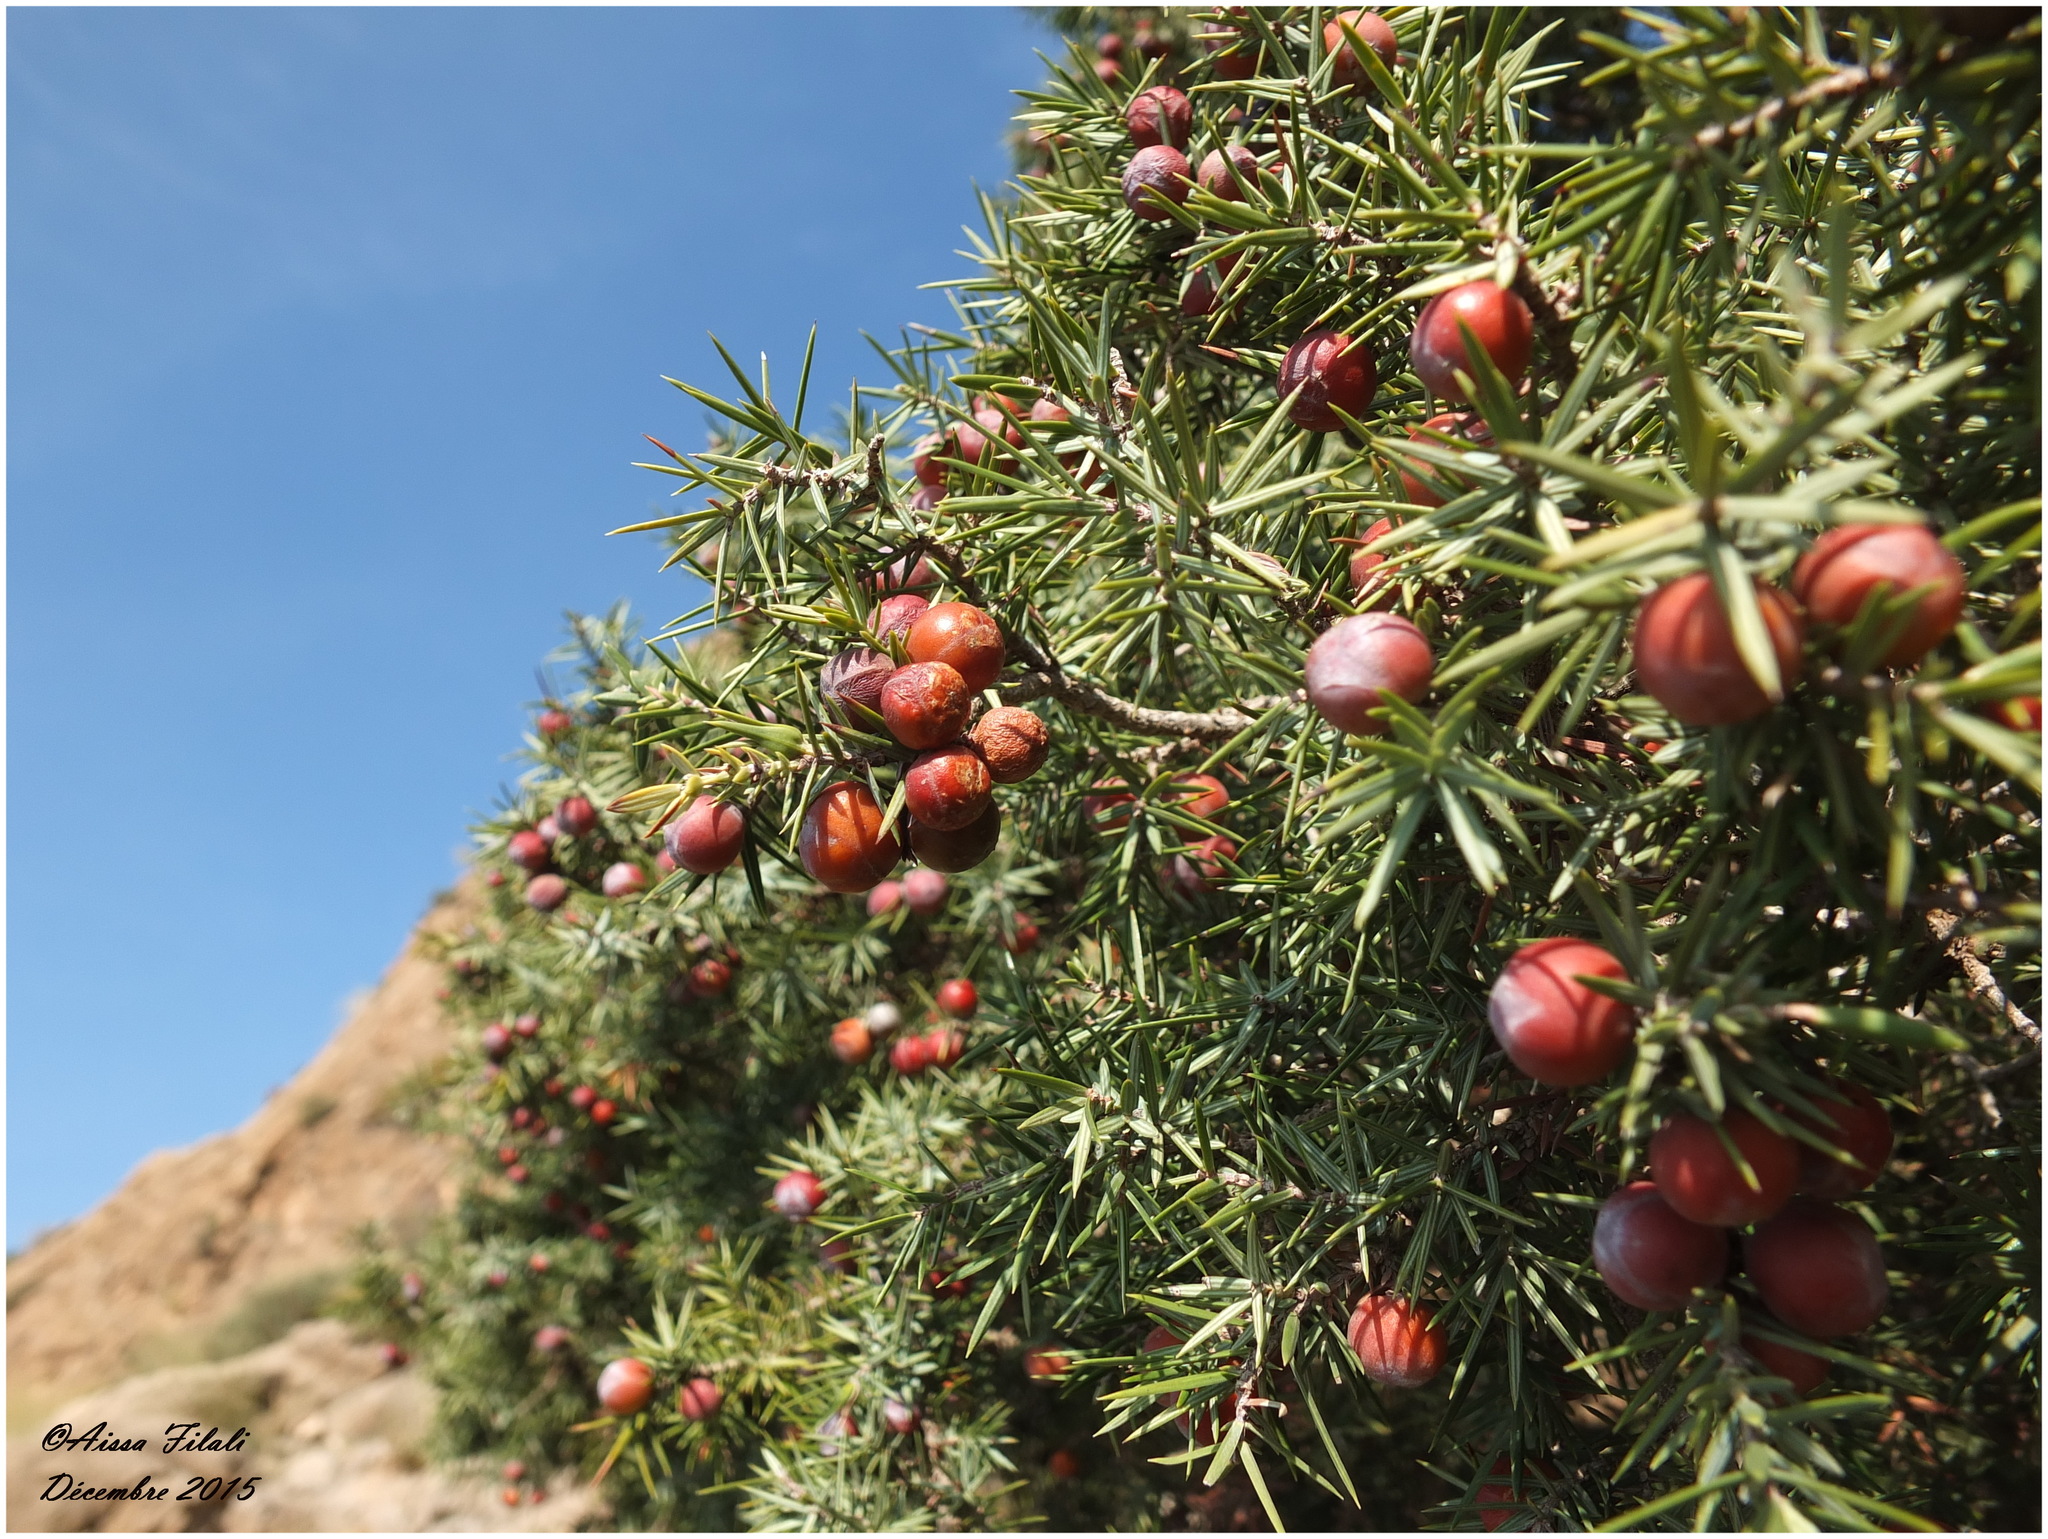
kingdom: Plantae
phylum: Tracheophyta
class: Pinopsida
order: Pinales
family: Cupressaceae
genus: Juniperus
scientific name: Juniperus oxycedrus
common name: Prickly juniper
